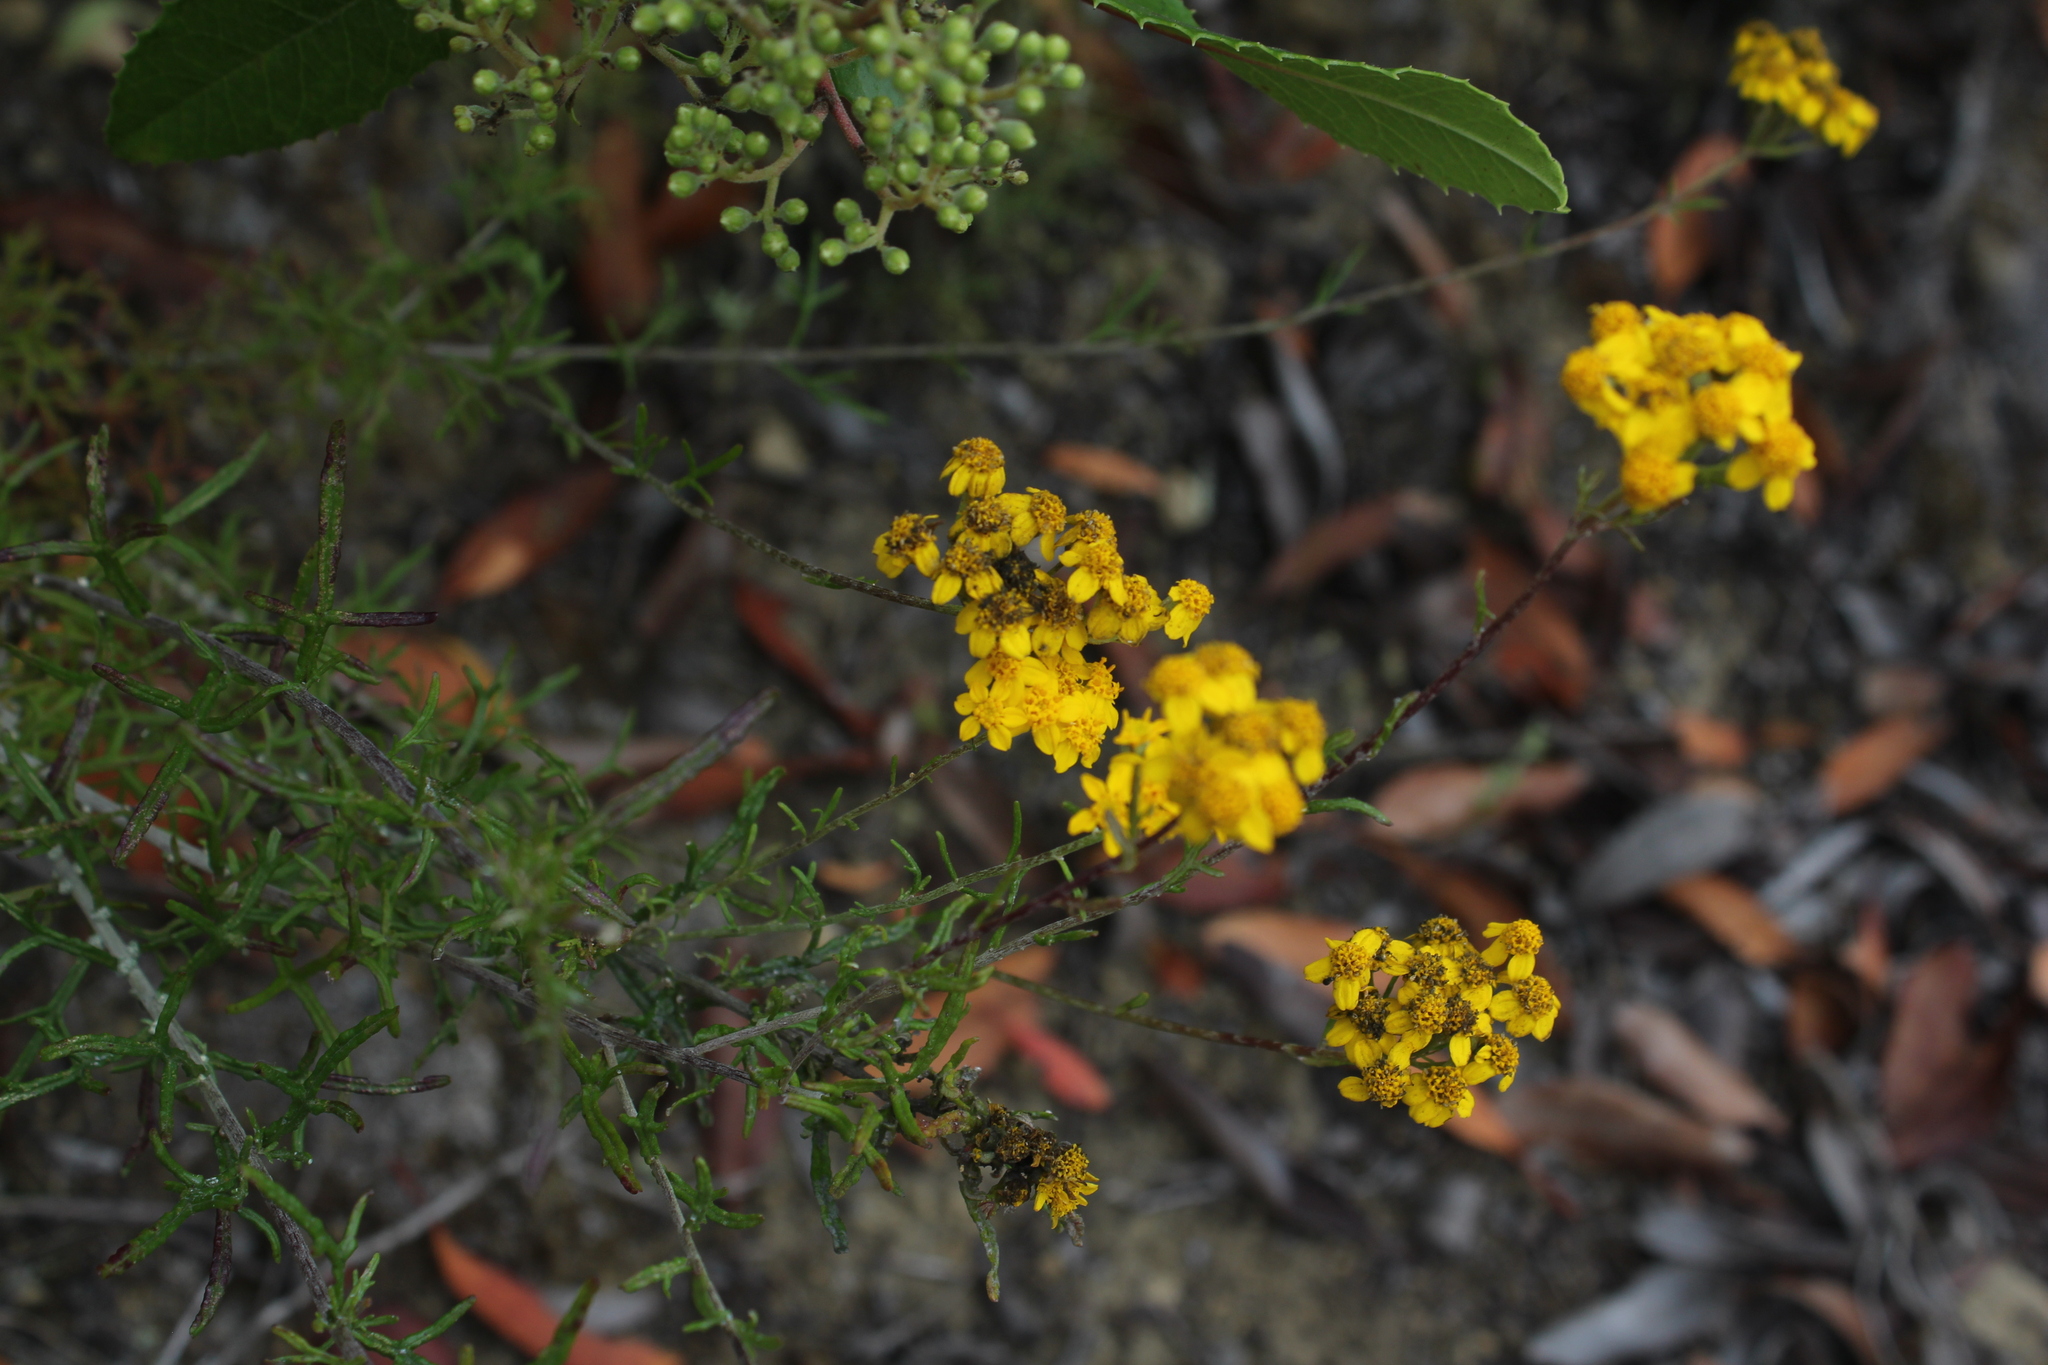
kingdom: Plantae
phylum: Tracheophyta
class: Magnoliopsida
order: Asterales
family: Asteraceae
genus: Eriophyllum
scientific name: Eriophyllum confertiflorum
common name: Golden-yarrow
